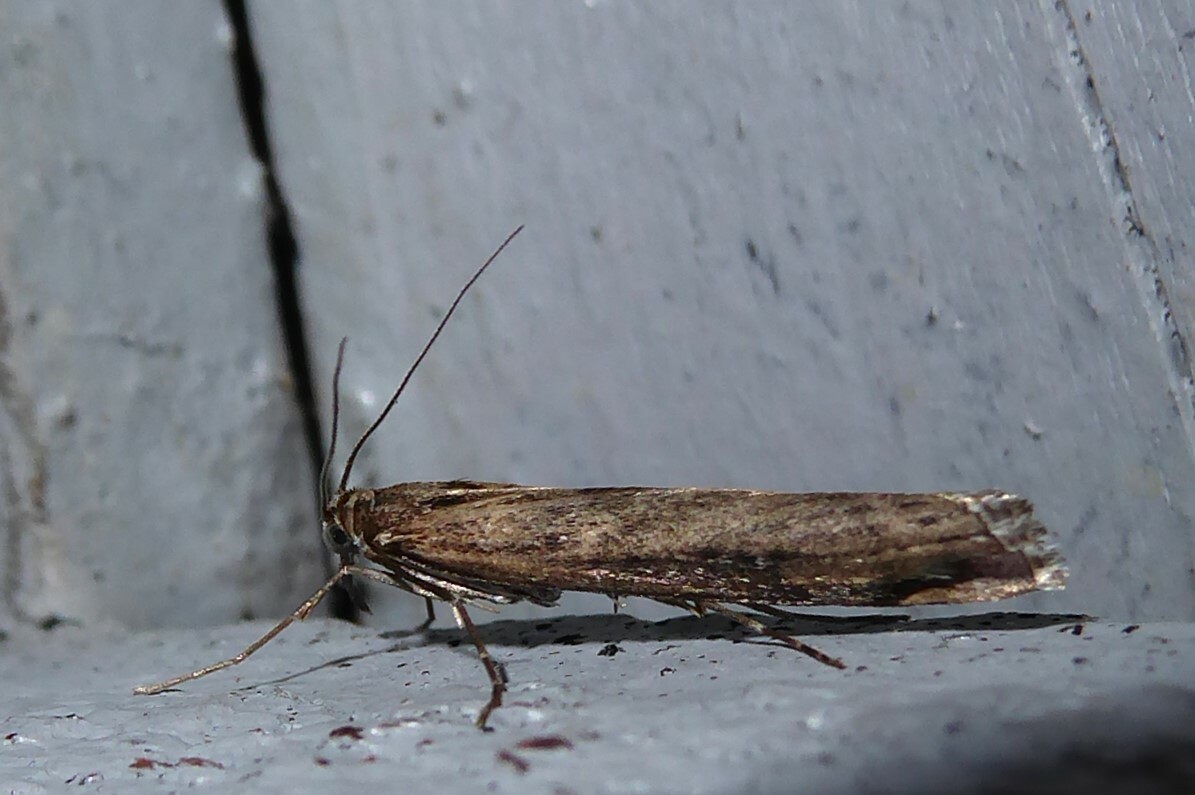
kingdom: Animalia
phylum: Arthropoda
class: Insecta
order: Lepidoptera
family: Crambidae
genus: Orocrambus
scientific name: Orocrambus cyclopicus
